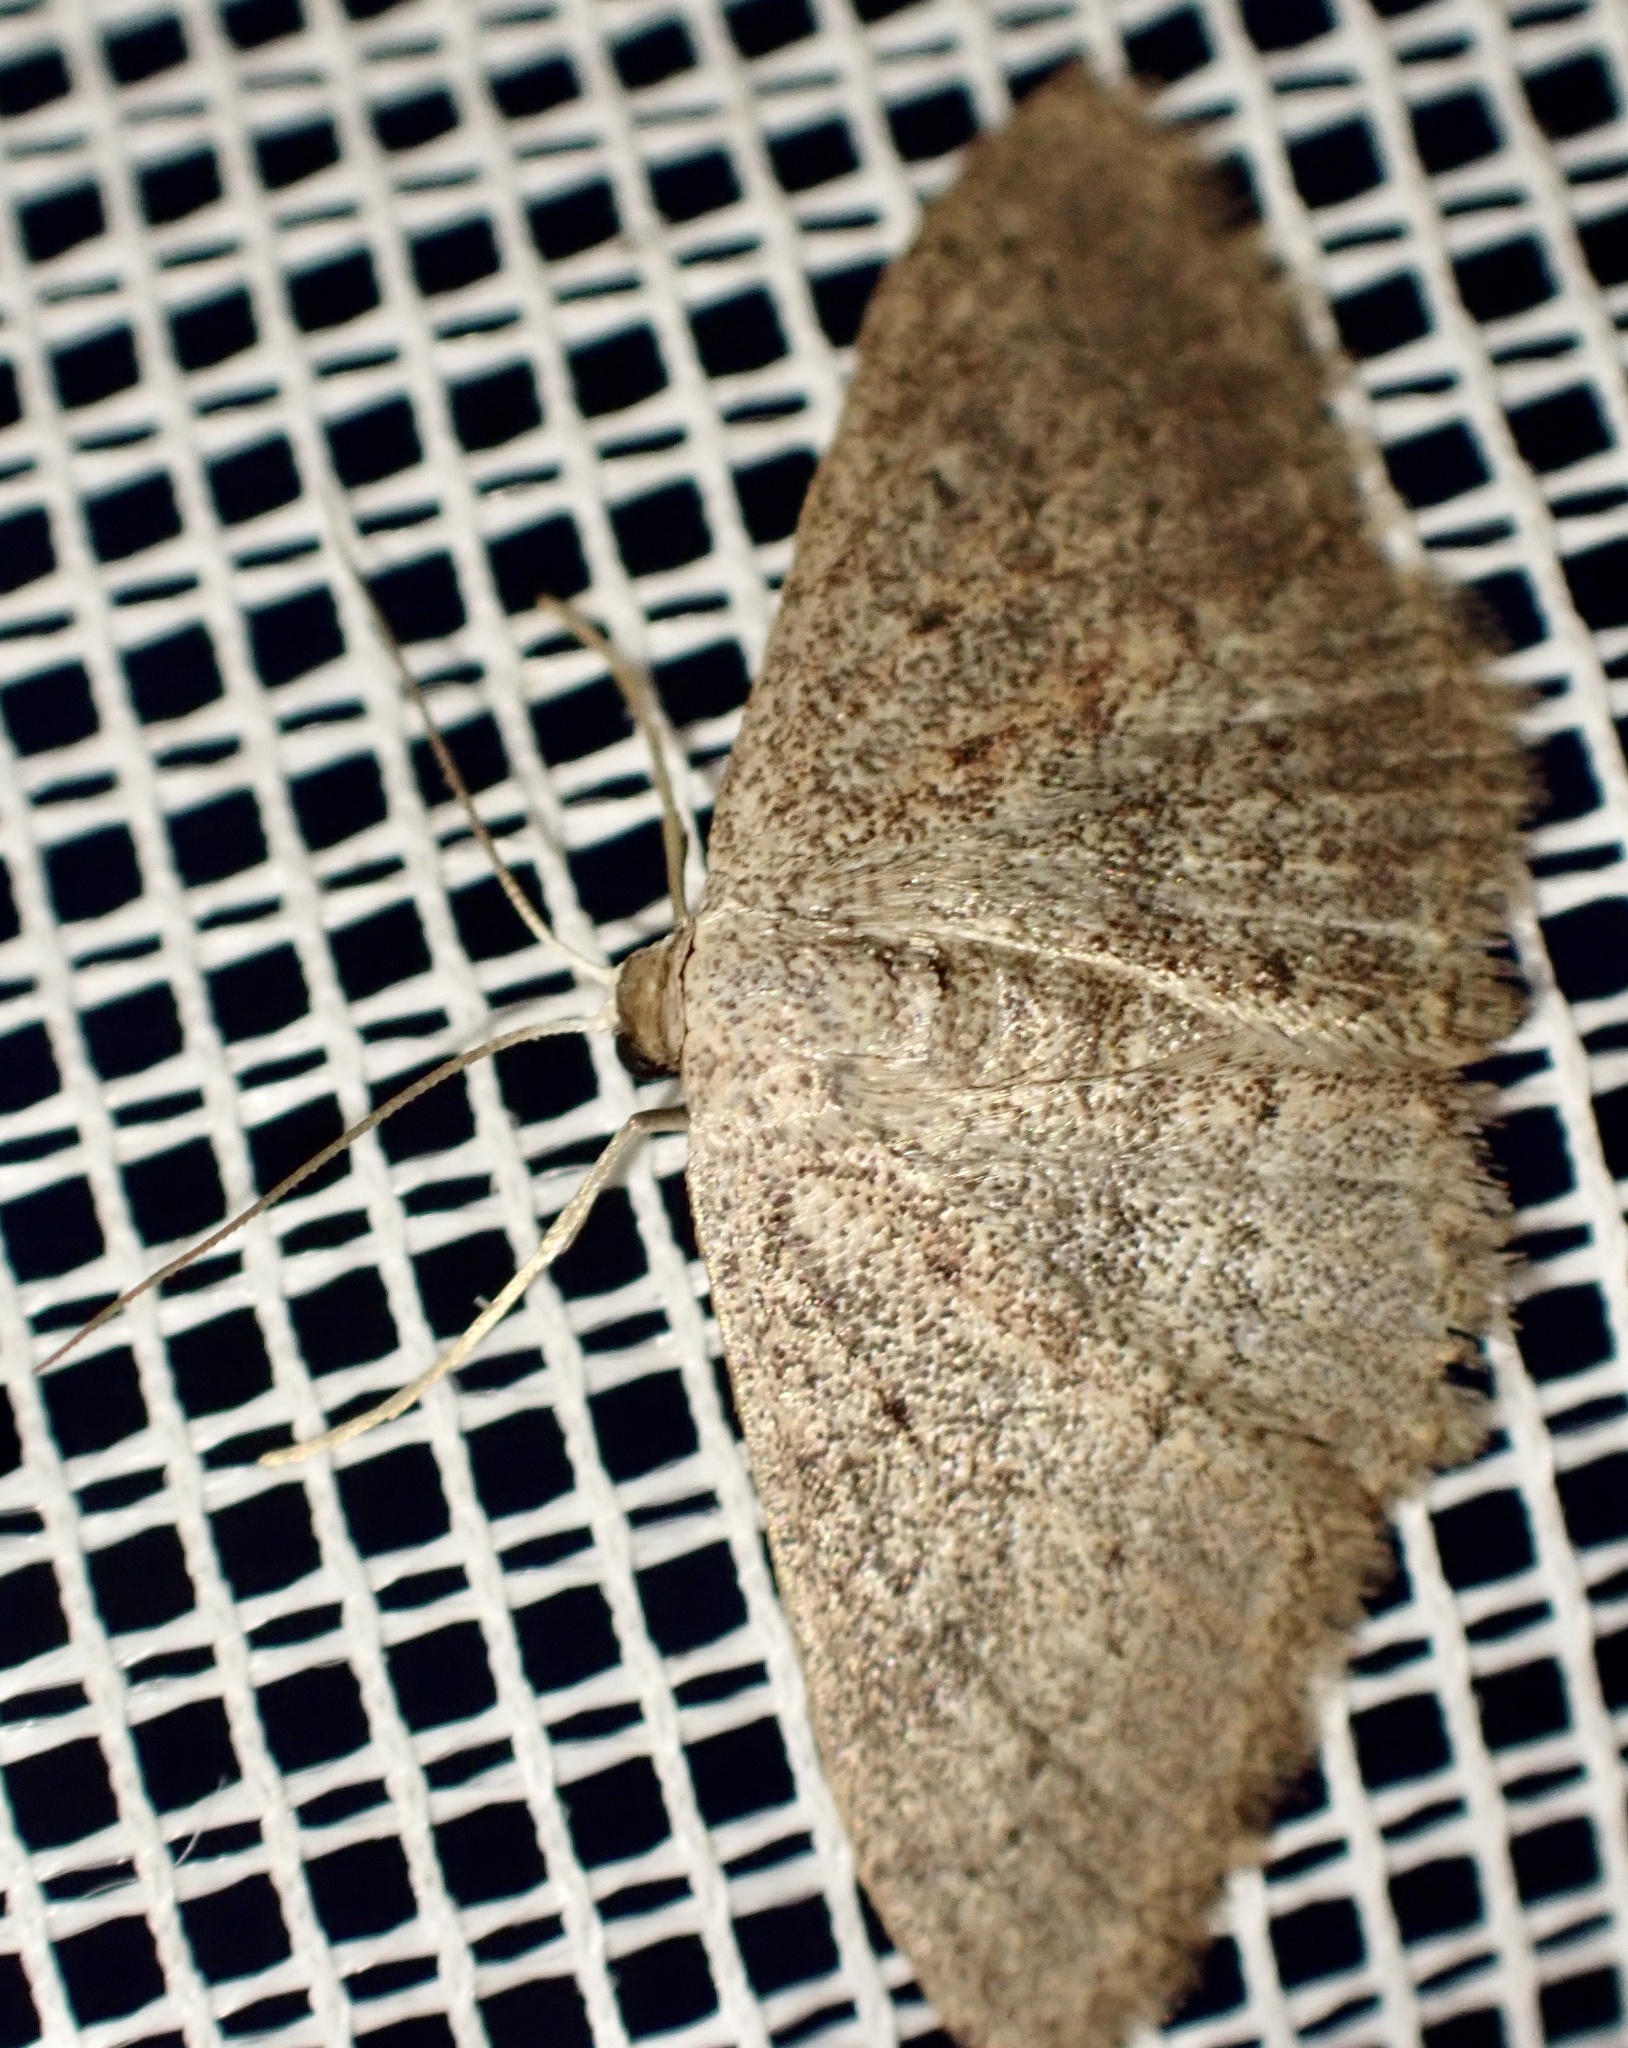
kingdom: Animalia
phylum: Arthropoda
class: Insecta
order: Lepidoptera
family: Geometridae
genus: Scopula
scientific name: Scopula guancharia
